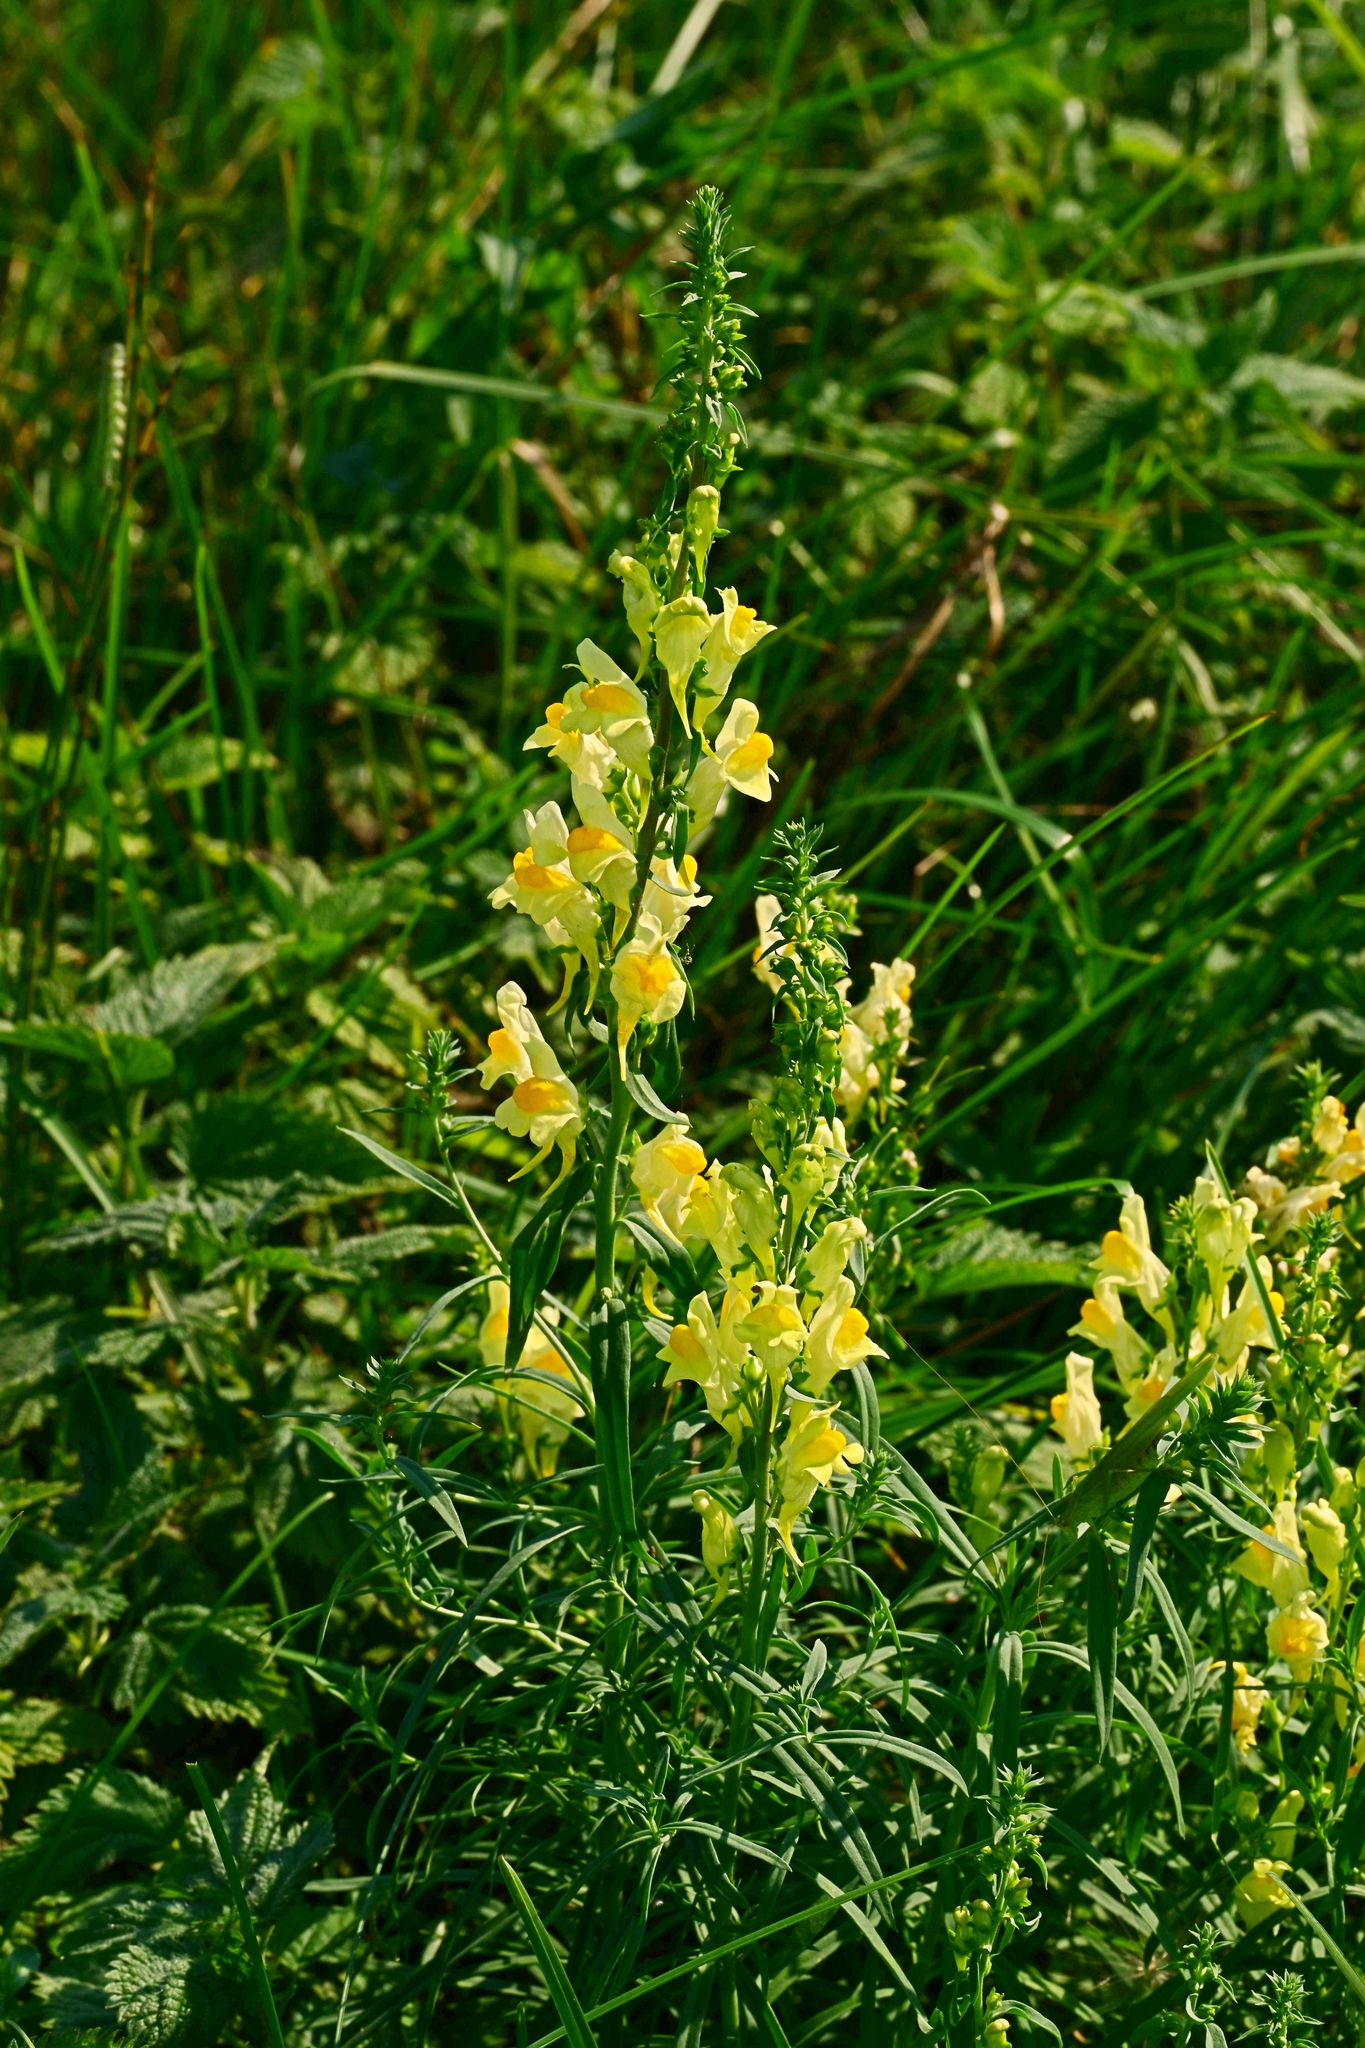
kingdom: Plantae
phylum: Tracheophyta
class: Magnoliopsida
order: Lamiales
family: Plantaginaceae
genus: Linaria
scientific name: Linaria vulgaris
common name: Butter and eggs
